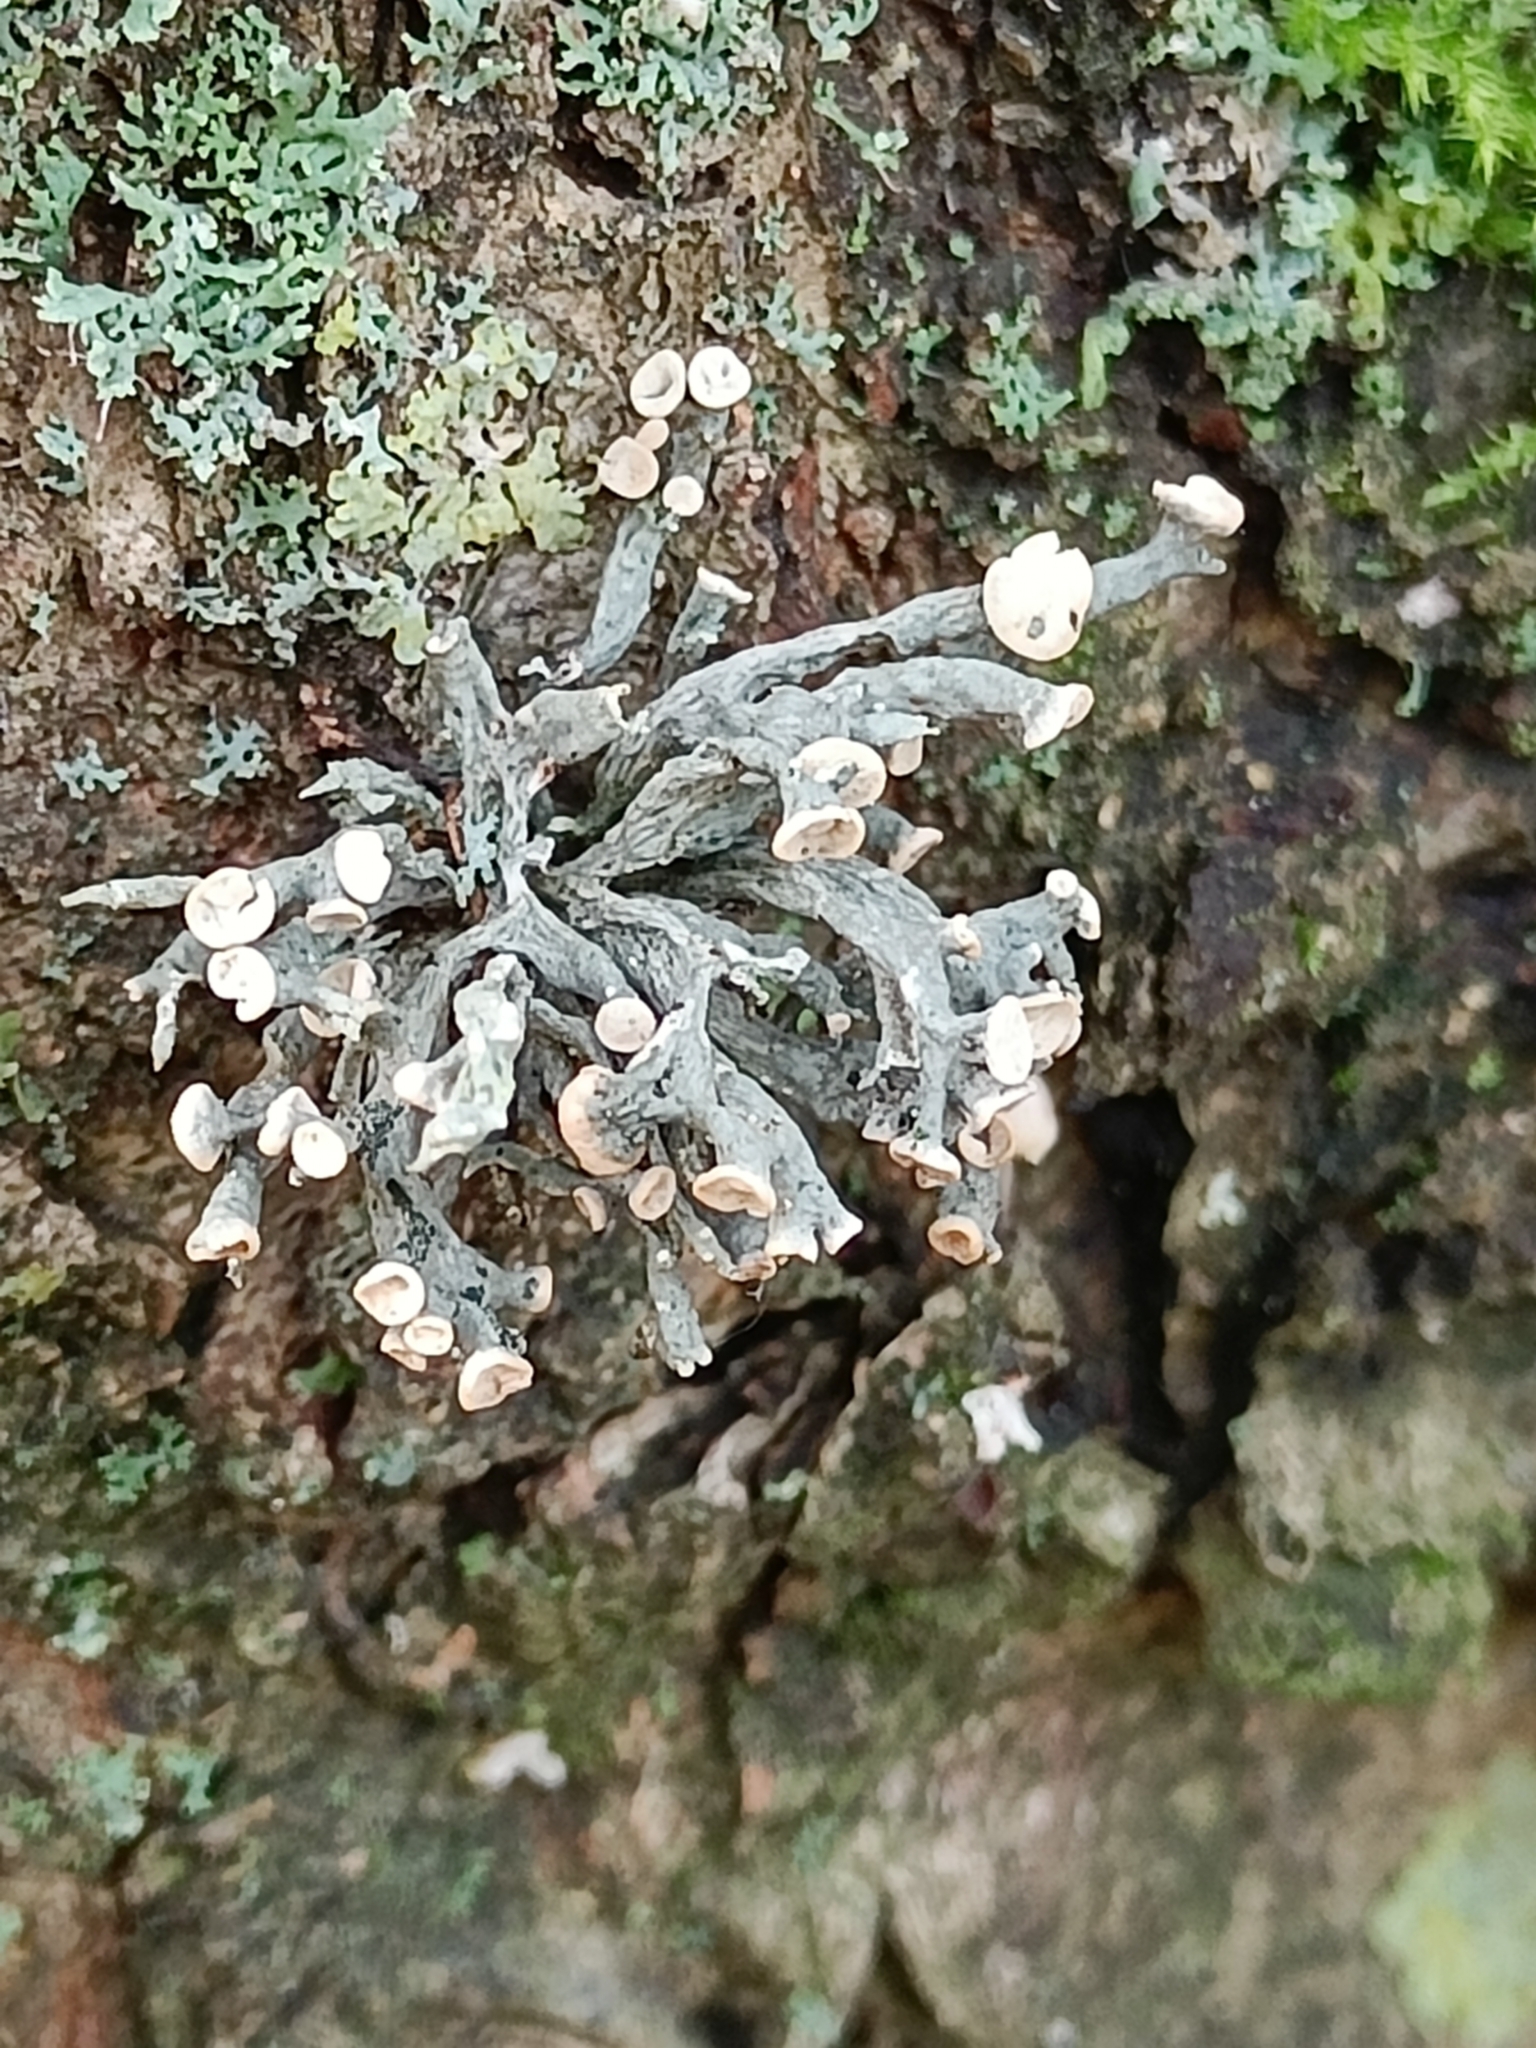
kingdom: Fungi
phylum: Ascomycota
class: Lecanoromycetes
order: Lecanorales
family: Ramalinaceae
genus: Ramalina
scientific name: Ramalina fastigiata
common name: Dotted ribbon lichen
